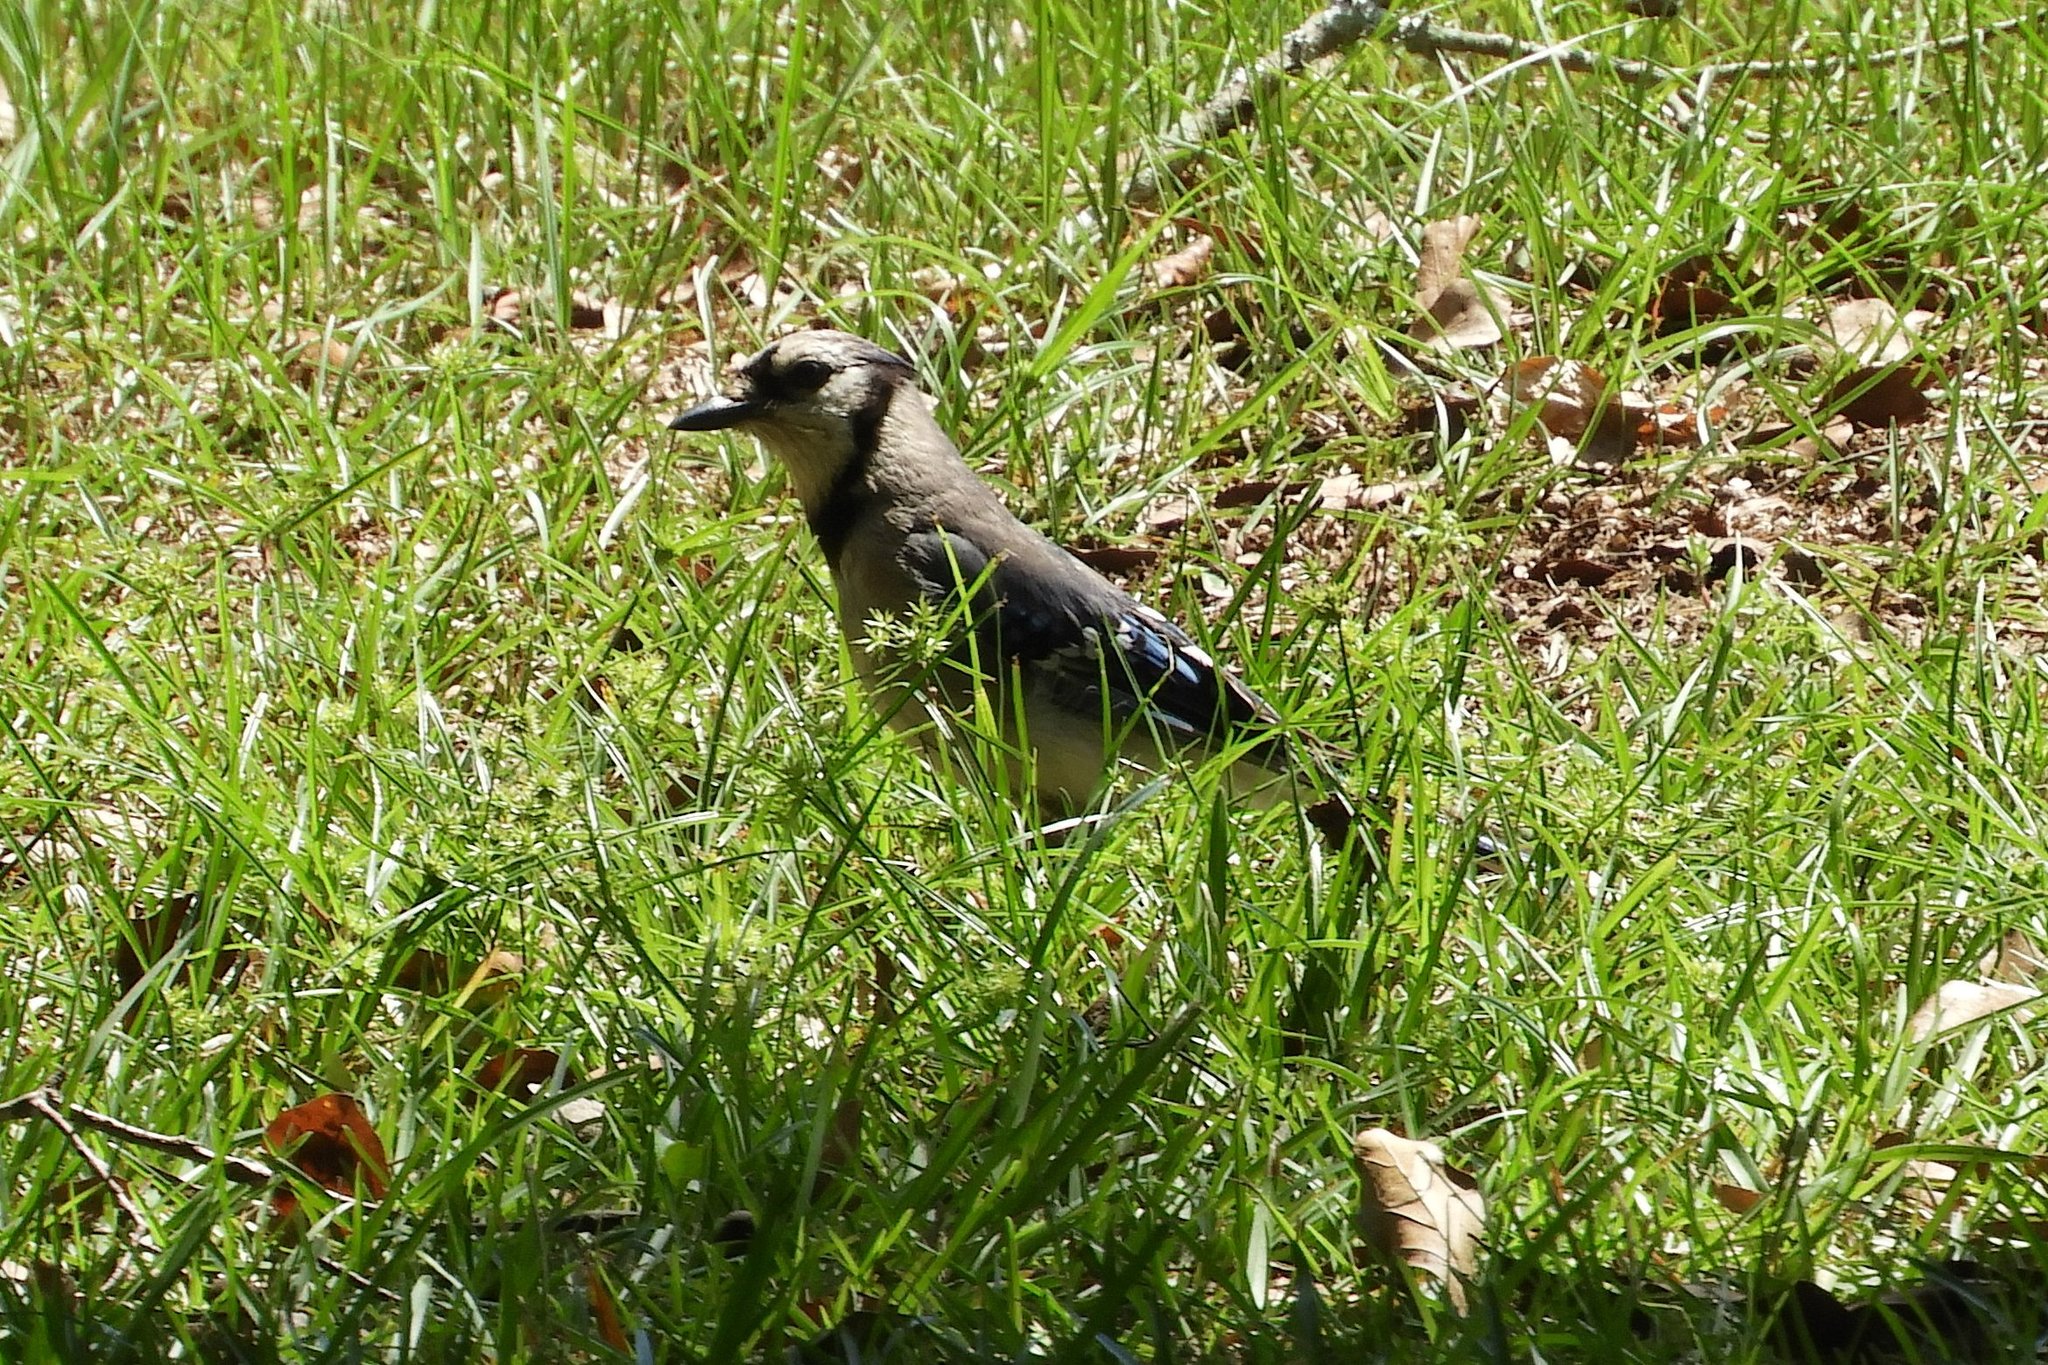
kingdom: Animalia
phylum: Chordata
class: Aves
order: Passeriformes
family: Corvidae
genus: Cyanocitta
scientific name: Cyanocitta cristata
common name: Blue jay
